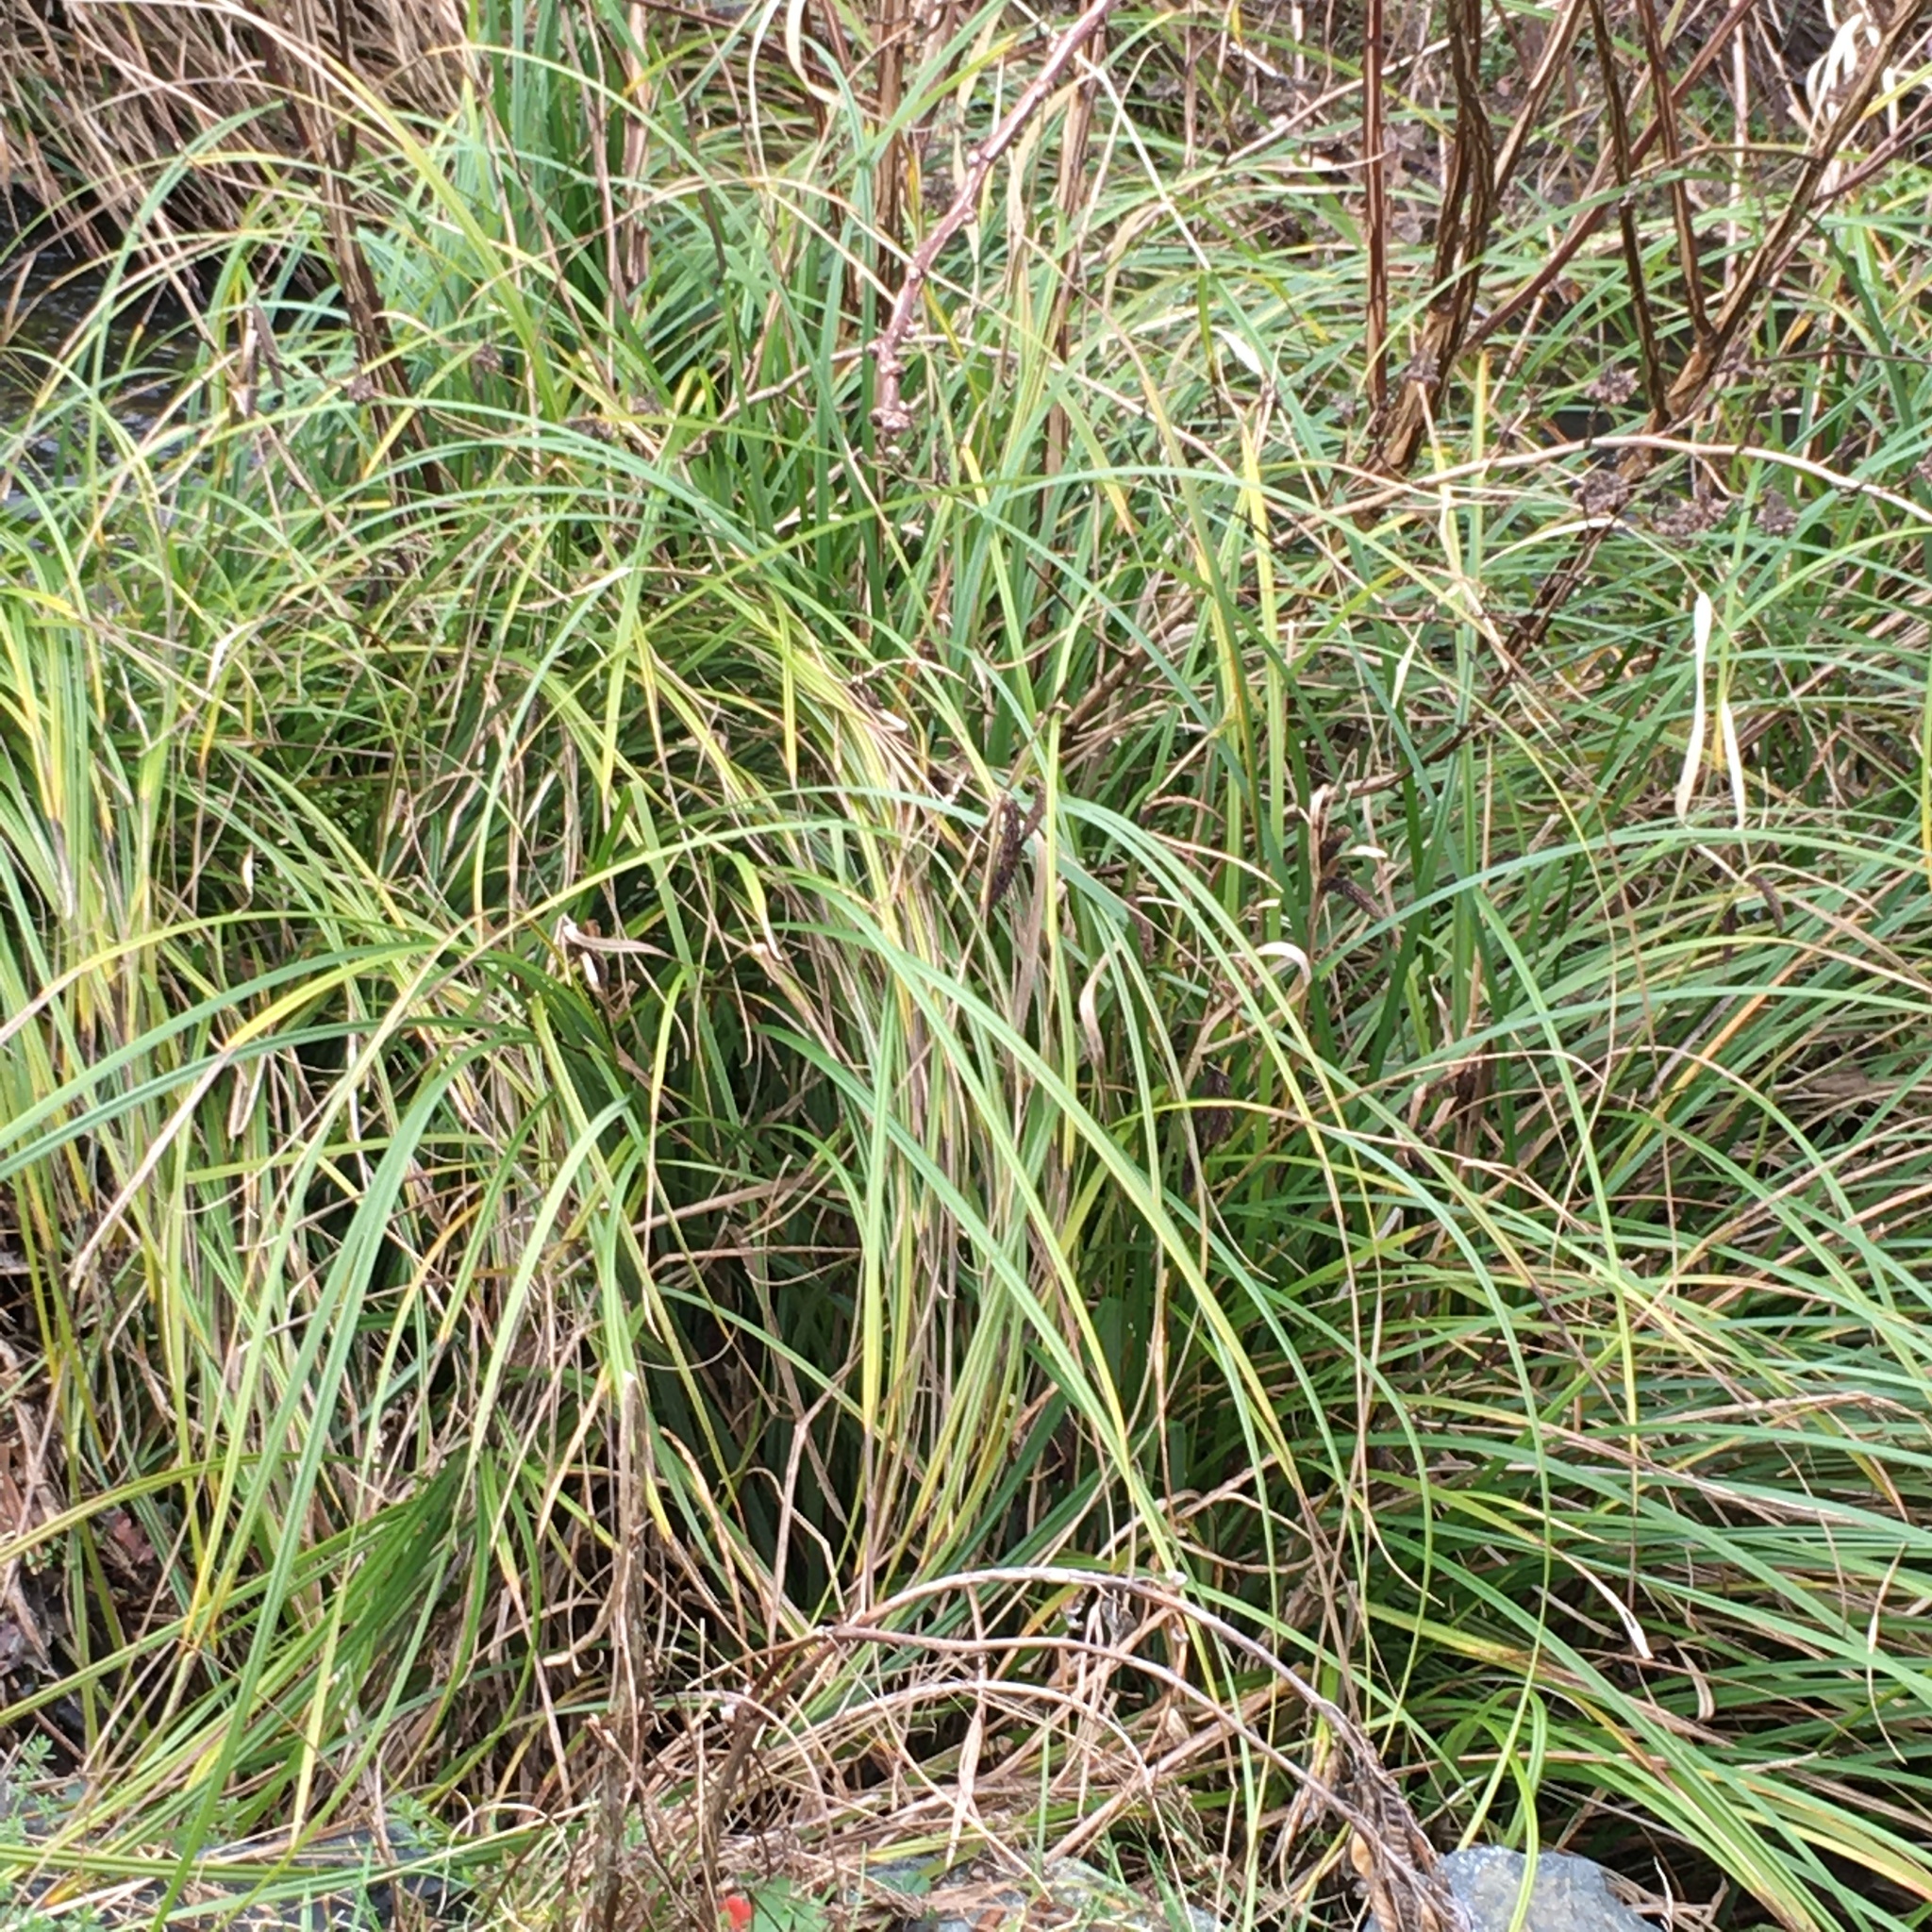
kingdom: Plantae
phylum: Tracheophyta
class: Liliopsida
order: Poales
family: Cyperaceae
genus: Carex
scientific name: Carex obnupta
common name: Slough sedge
